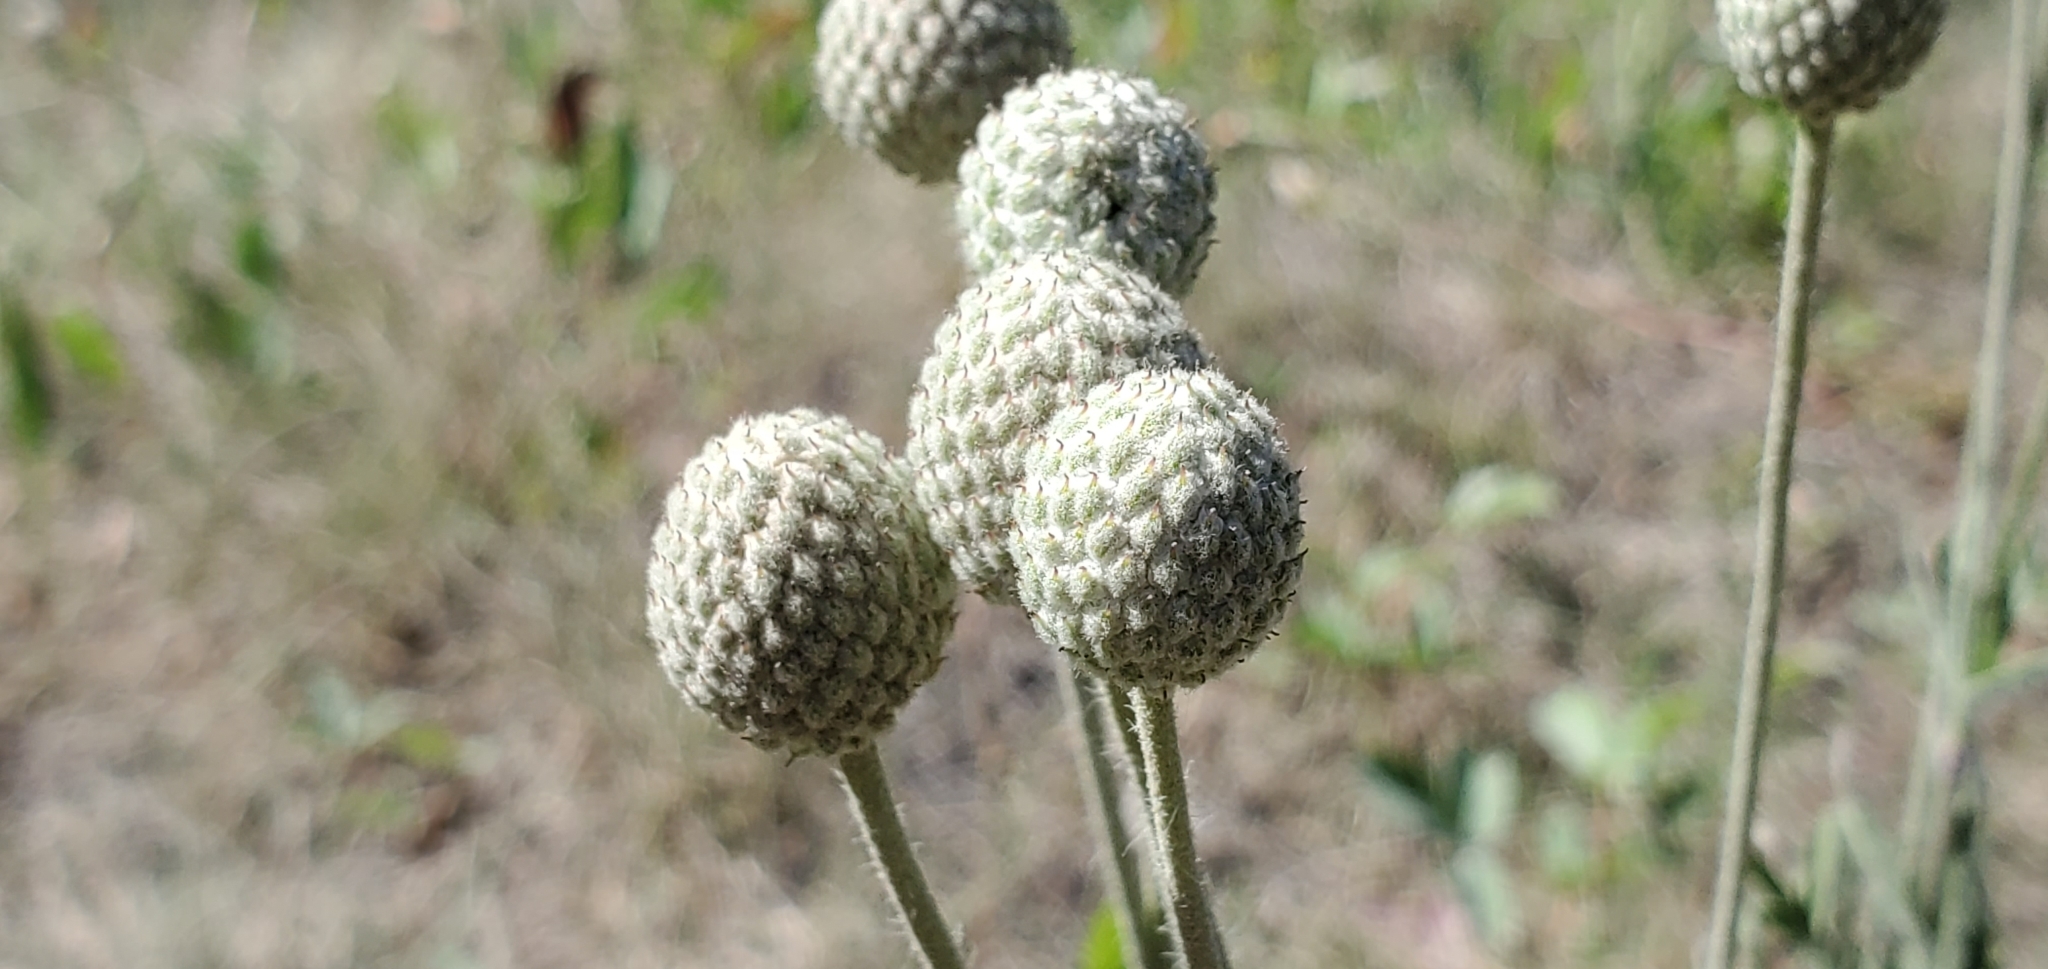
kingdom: Plantae
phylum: Tracheophyta
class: Magnoliopsida
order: Ranunculales
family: Ranunculaceae
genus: Anemone
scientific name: Anemone multifida
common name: Bird's-foot anemone
